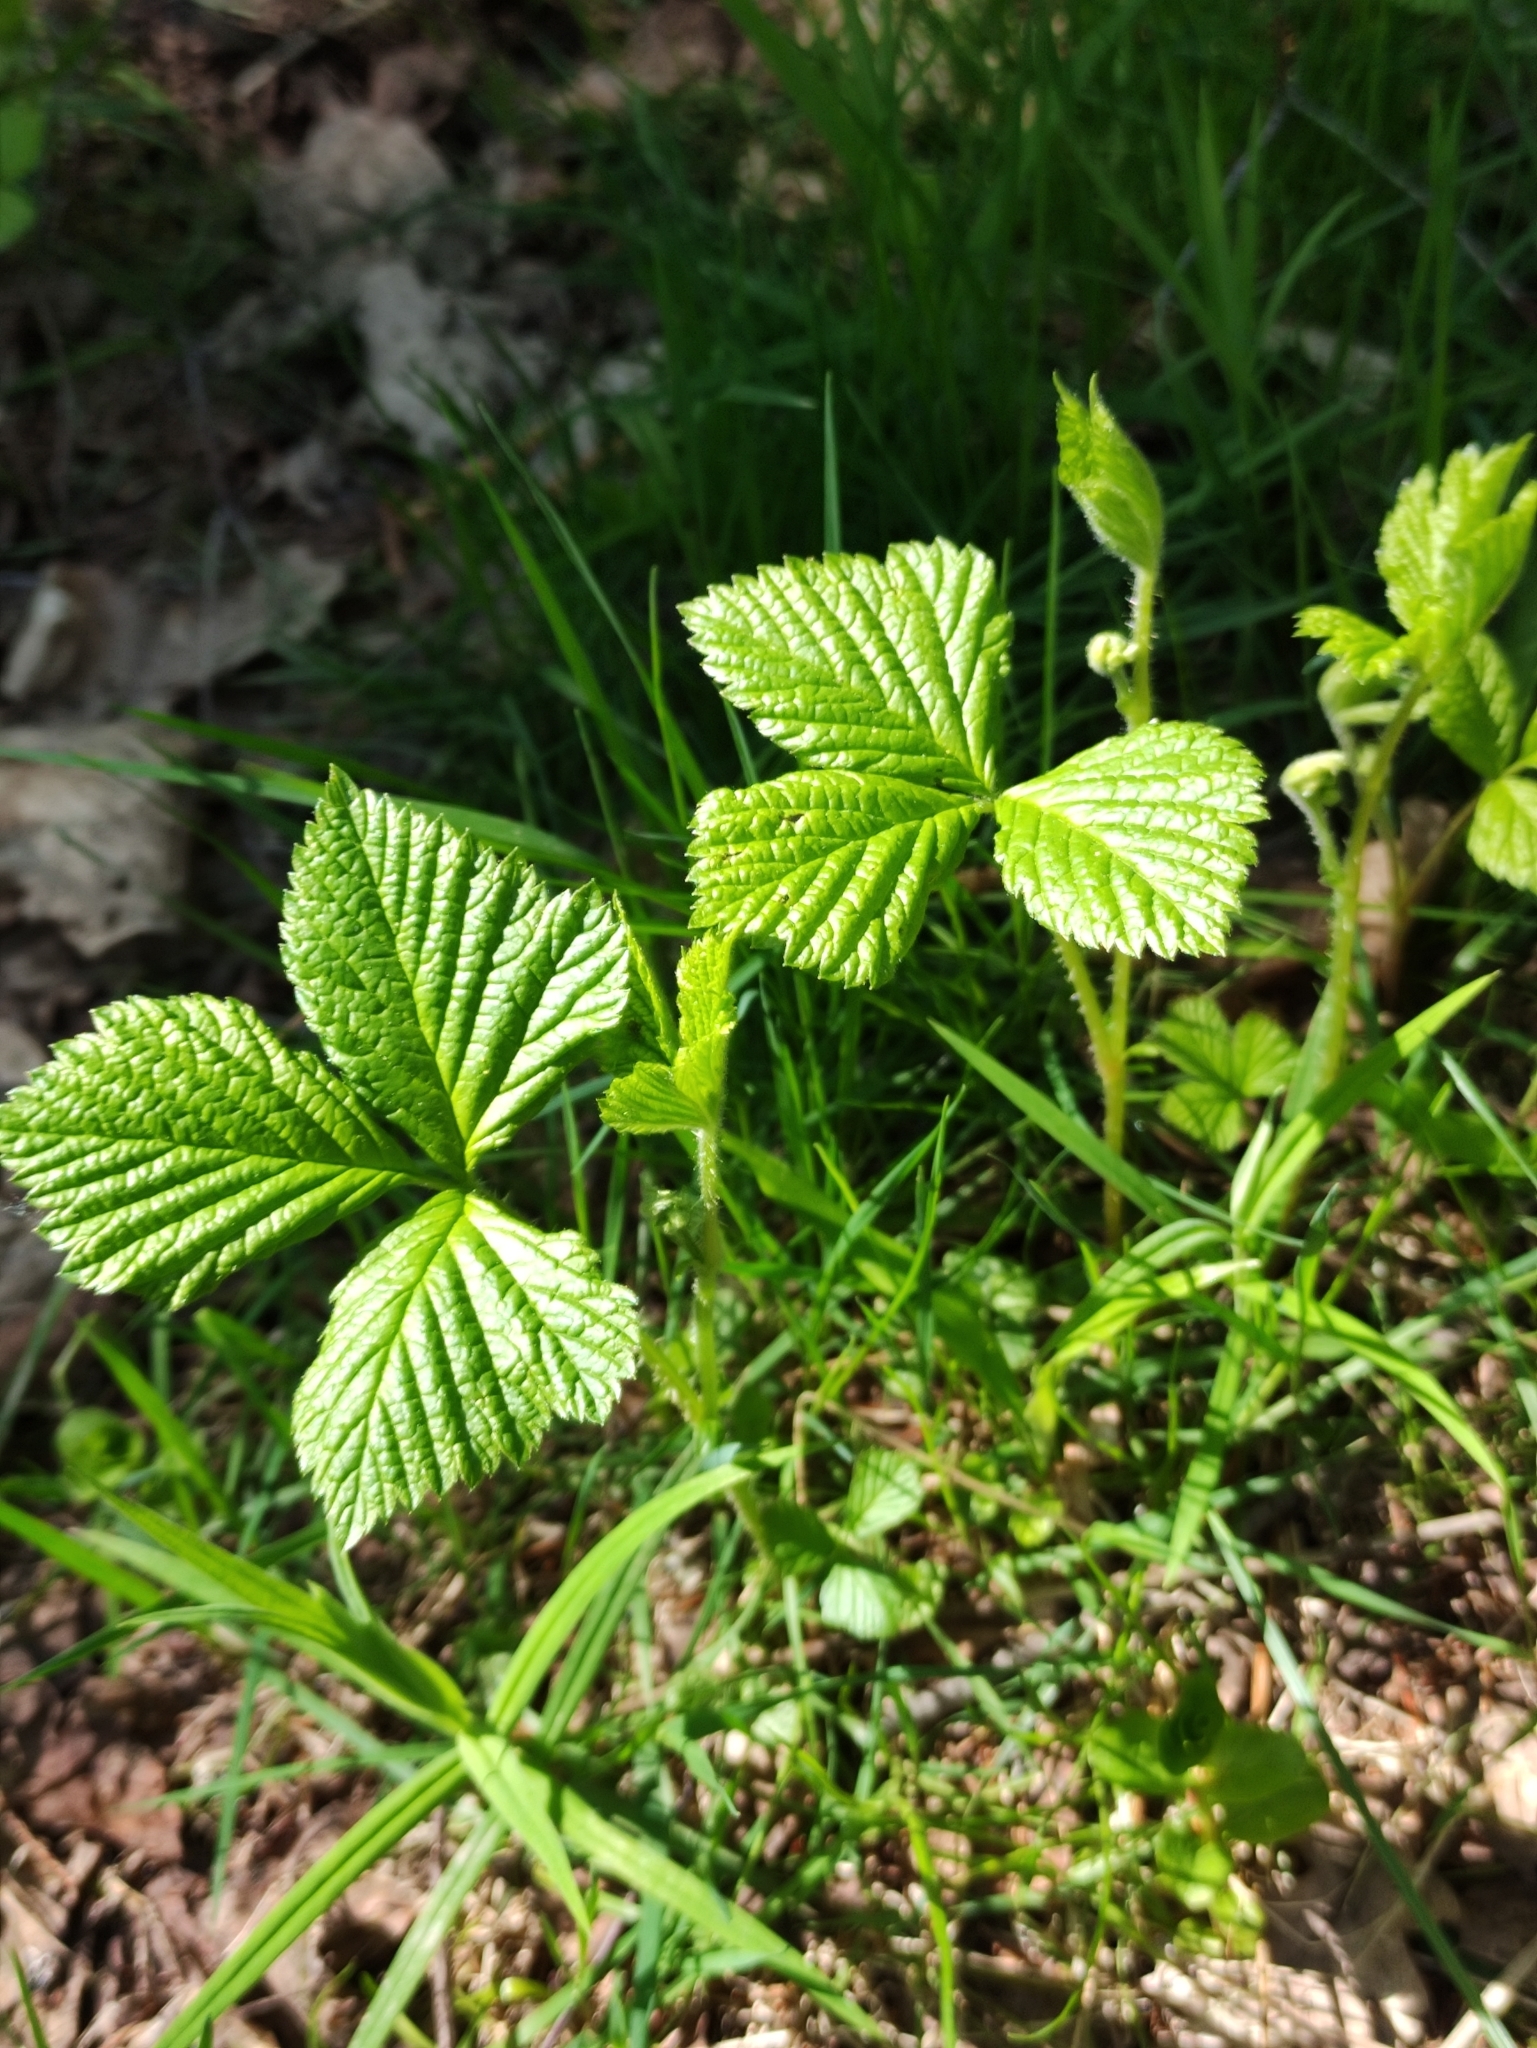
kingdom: Plantae
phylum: Tracheophyta
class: Magnoliopsida
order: Rosales
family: Rosaceae
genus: Rubus
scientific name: Rubus saxatilis
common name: Stone bramble
